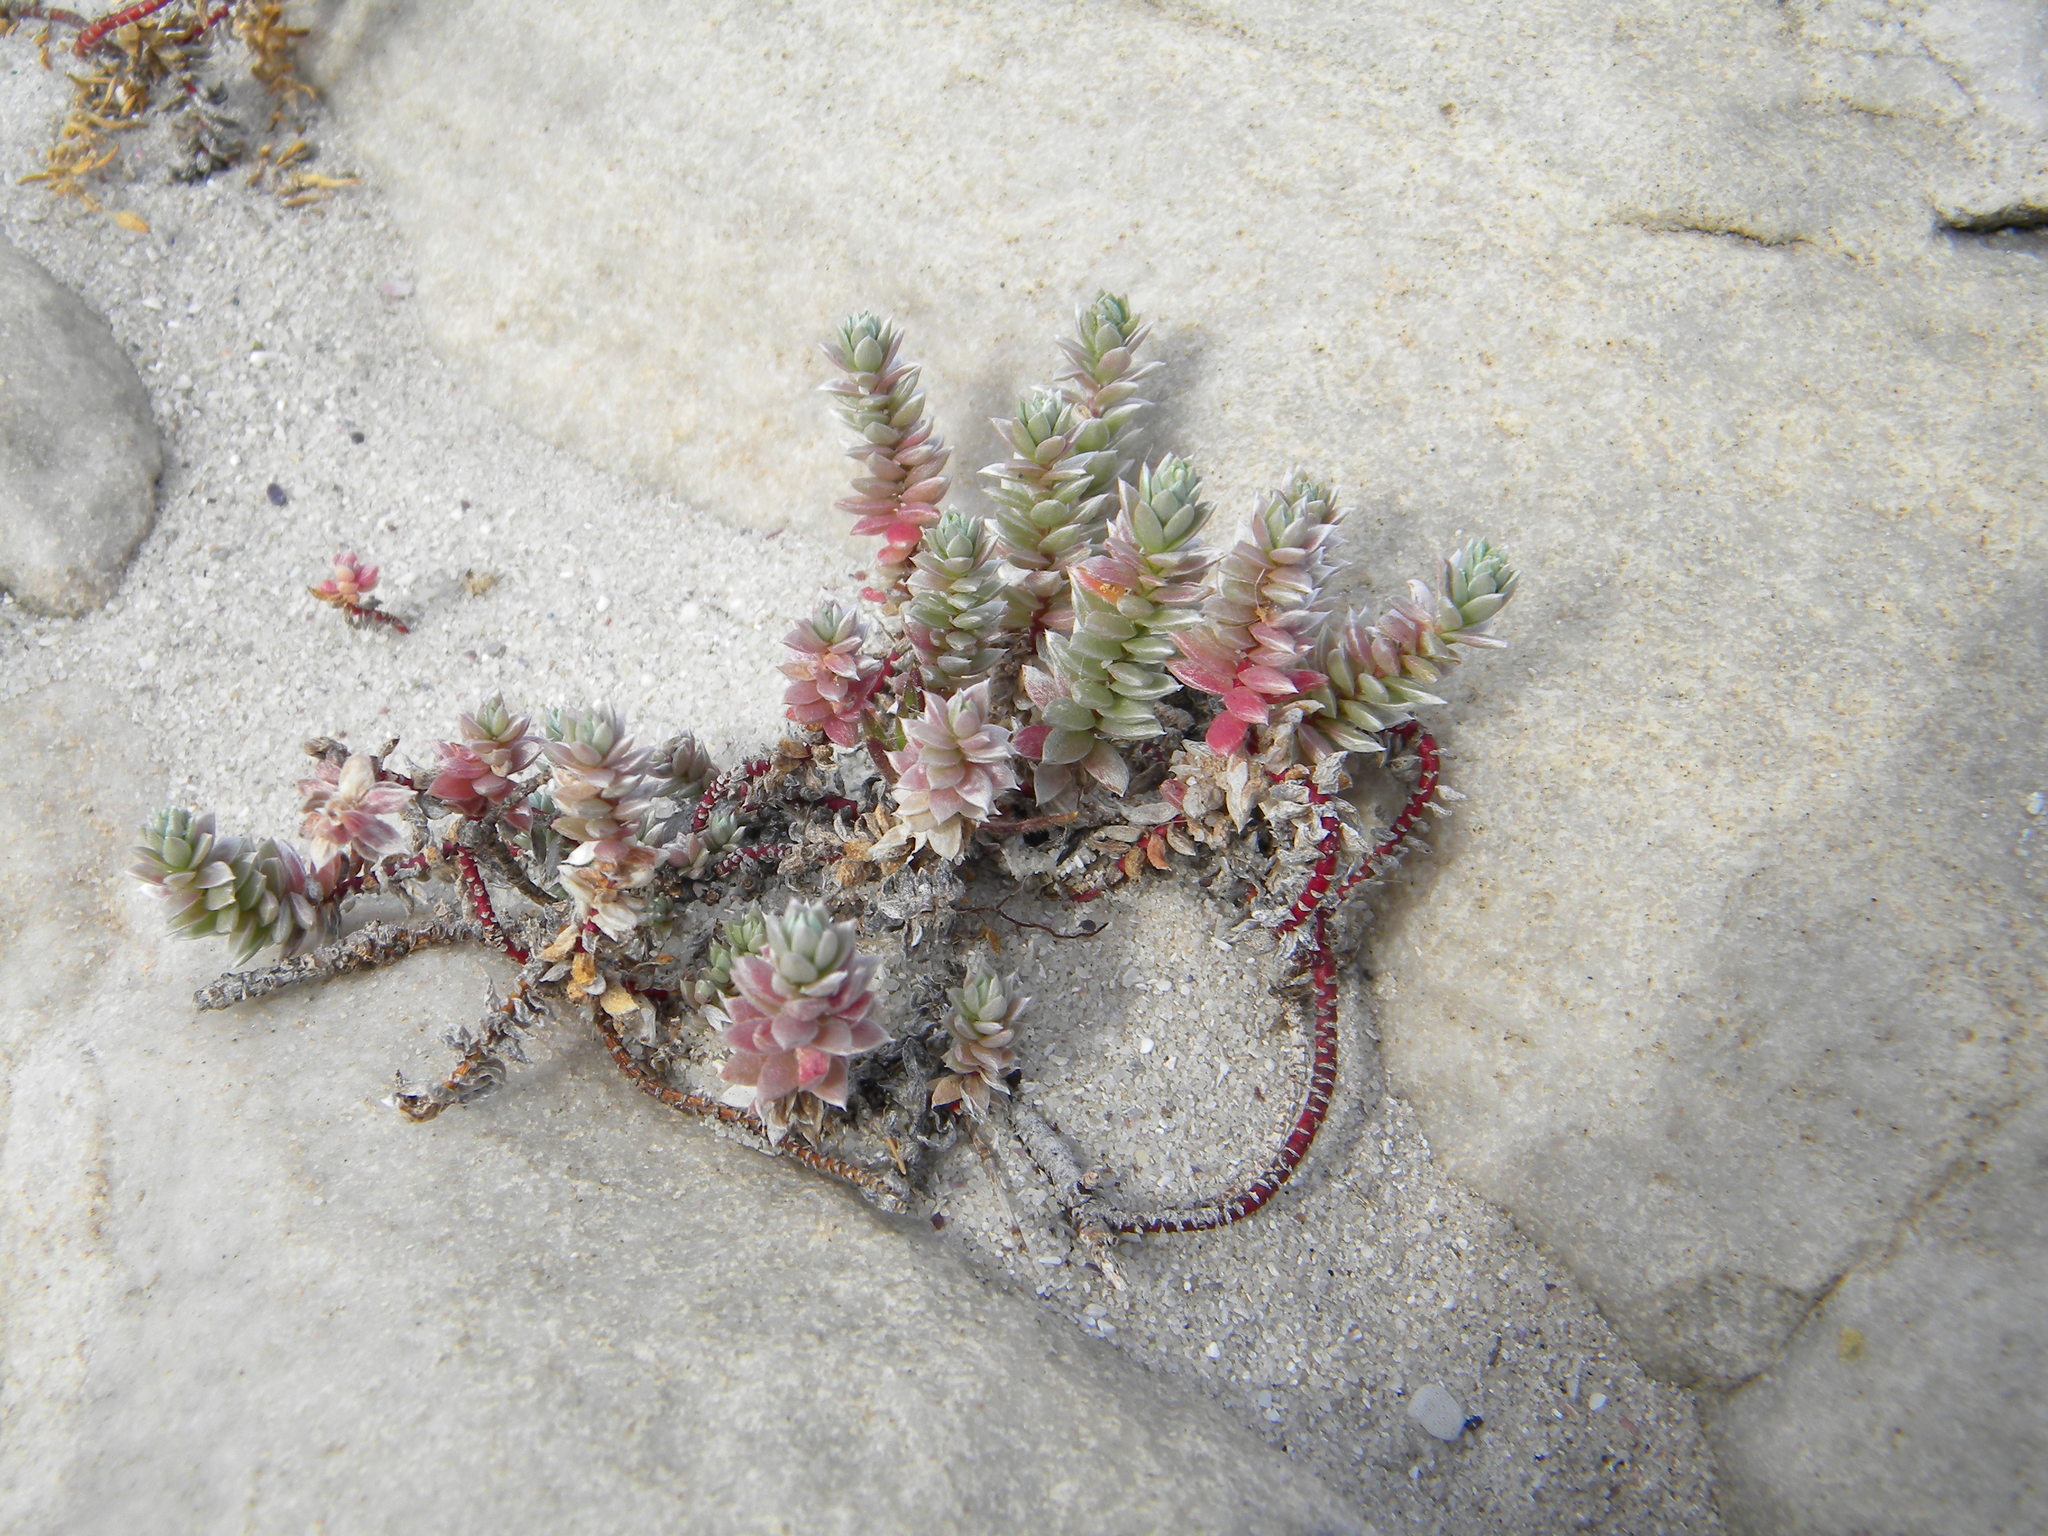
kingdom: Plantae
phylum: Tracheophyta
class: Magnoliopsida
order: Caryophyllales
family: Amaranthaceae
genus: Chenolea
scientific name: Chenolea diffusa
